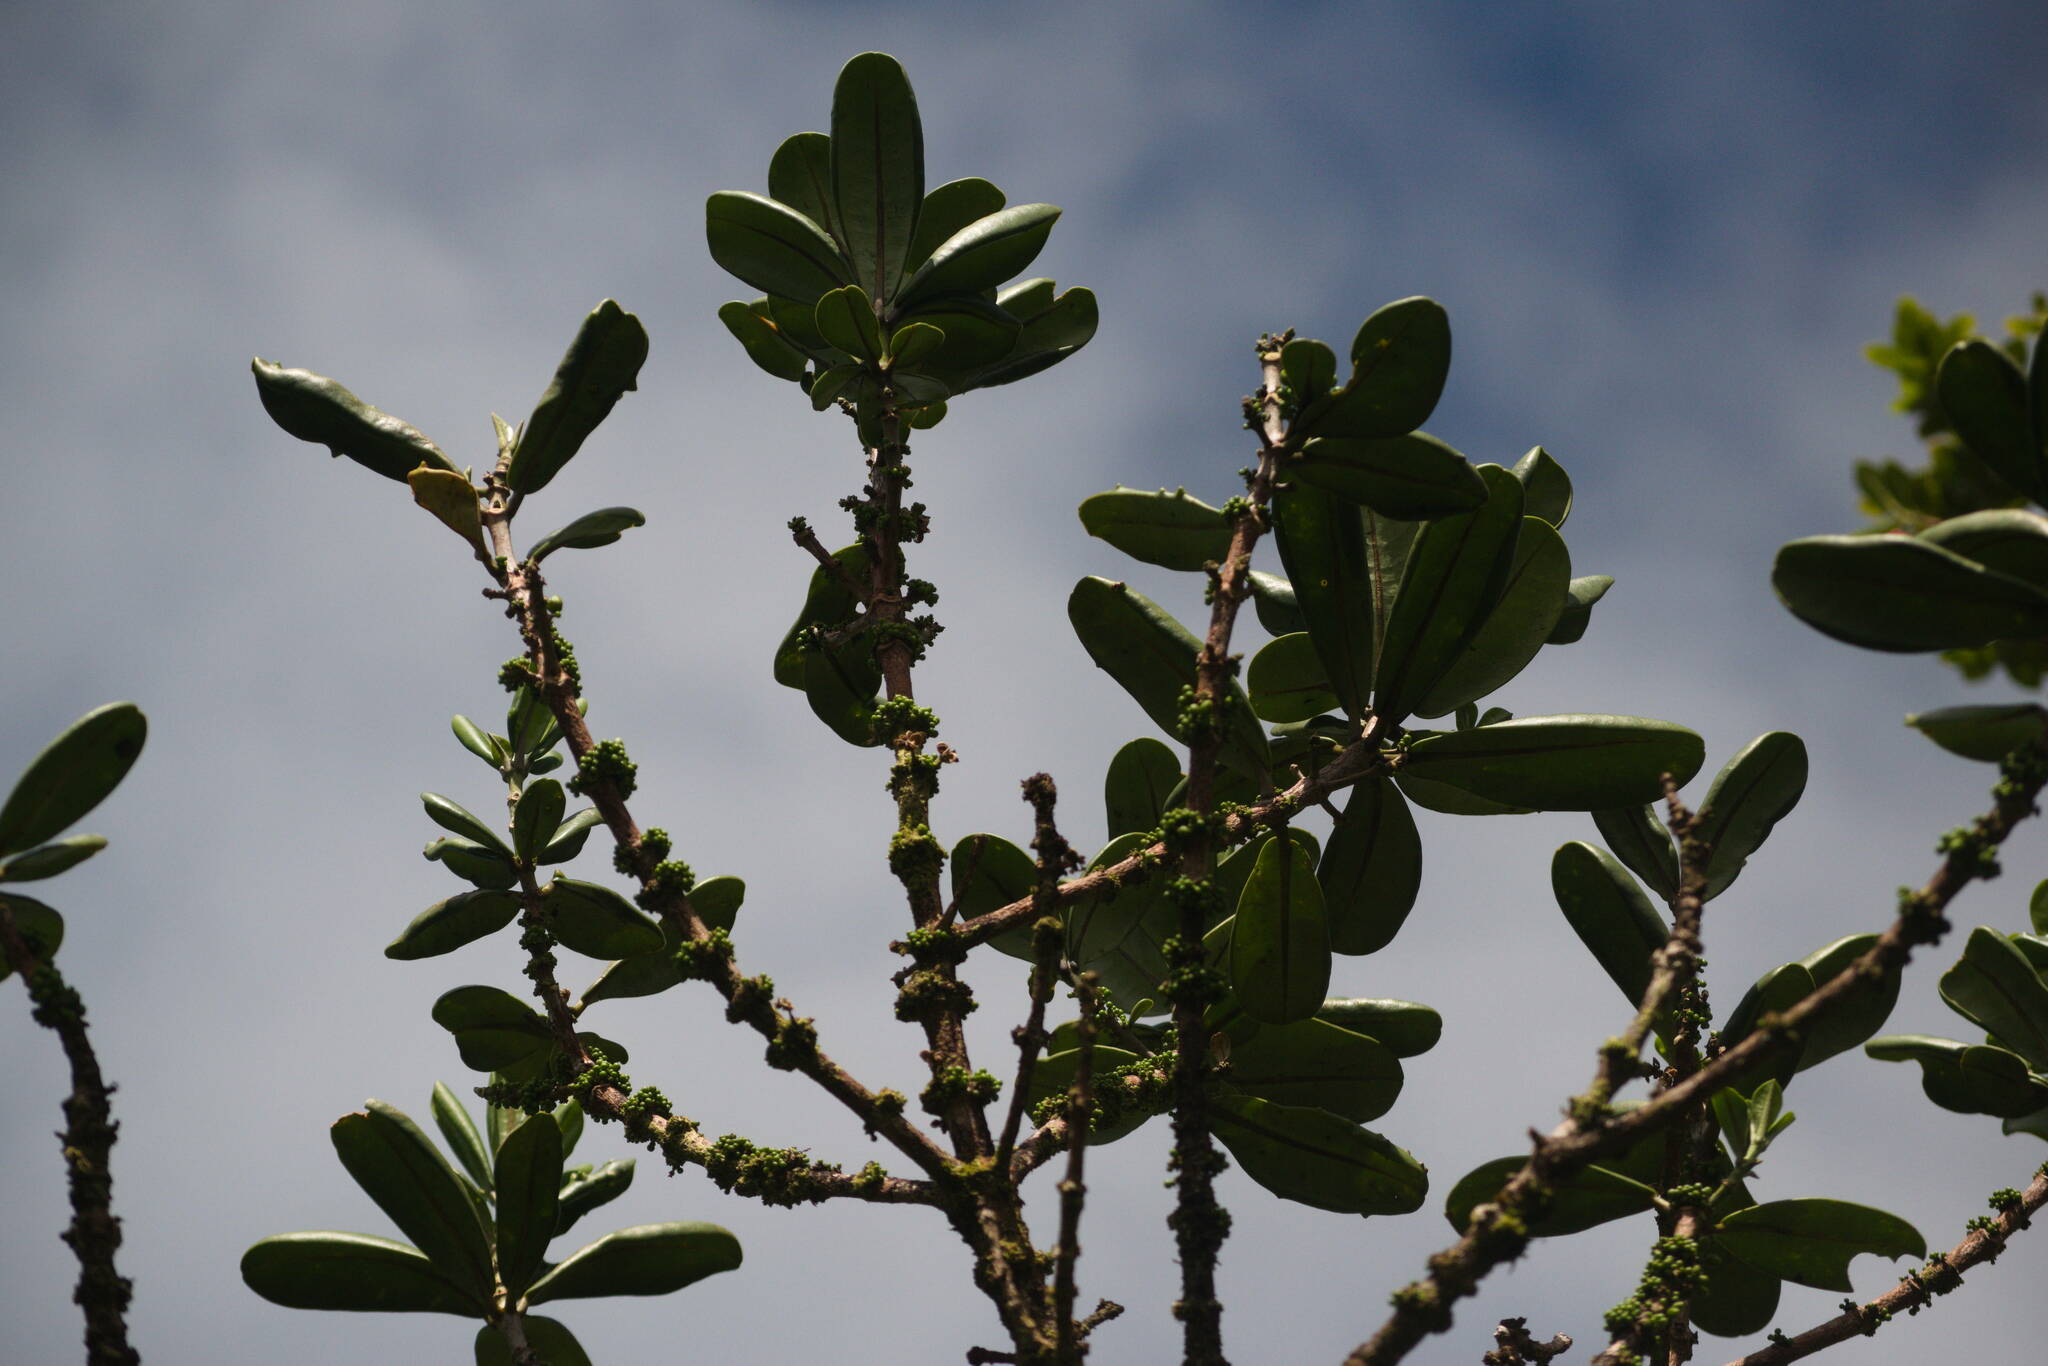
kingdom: Plantae
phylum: Tracheophyta
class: Magnoliopsida
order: Sapindales
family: Rutaceae
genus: Melicope
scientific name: Melicope clusiifolia
